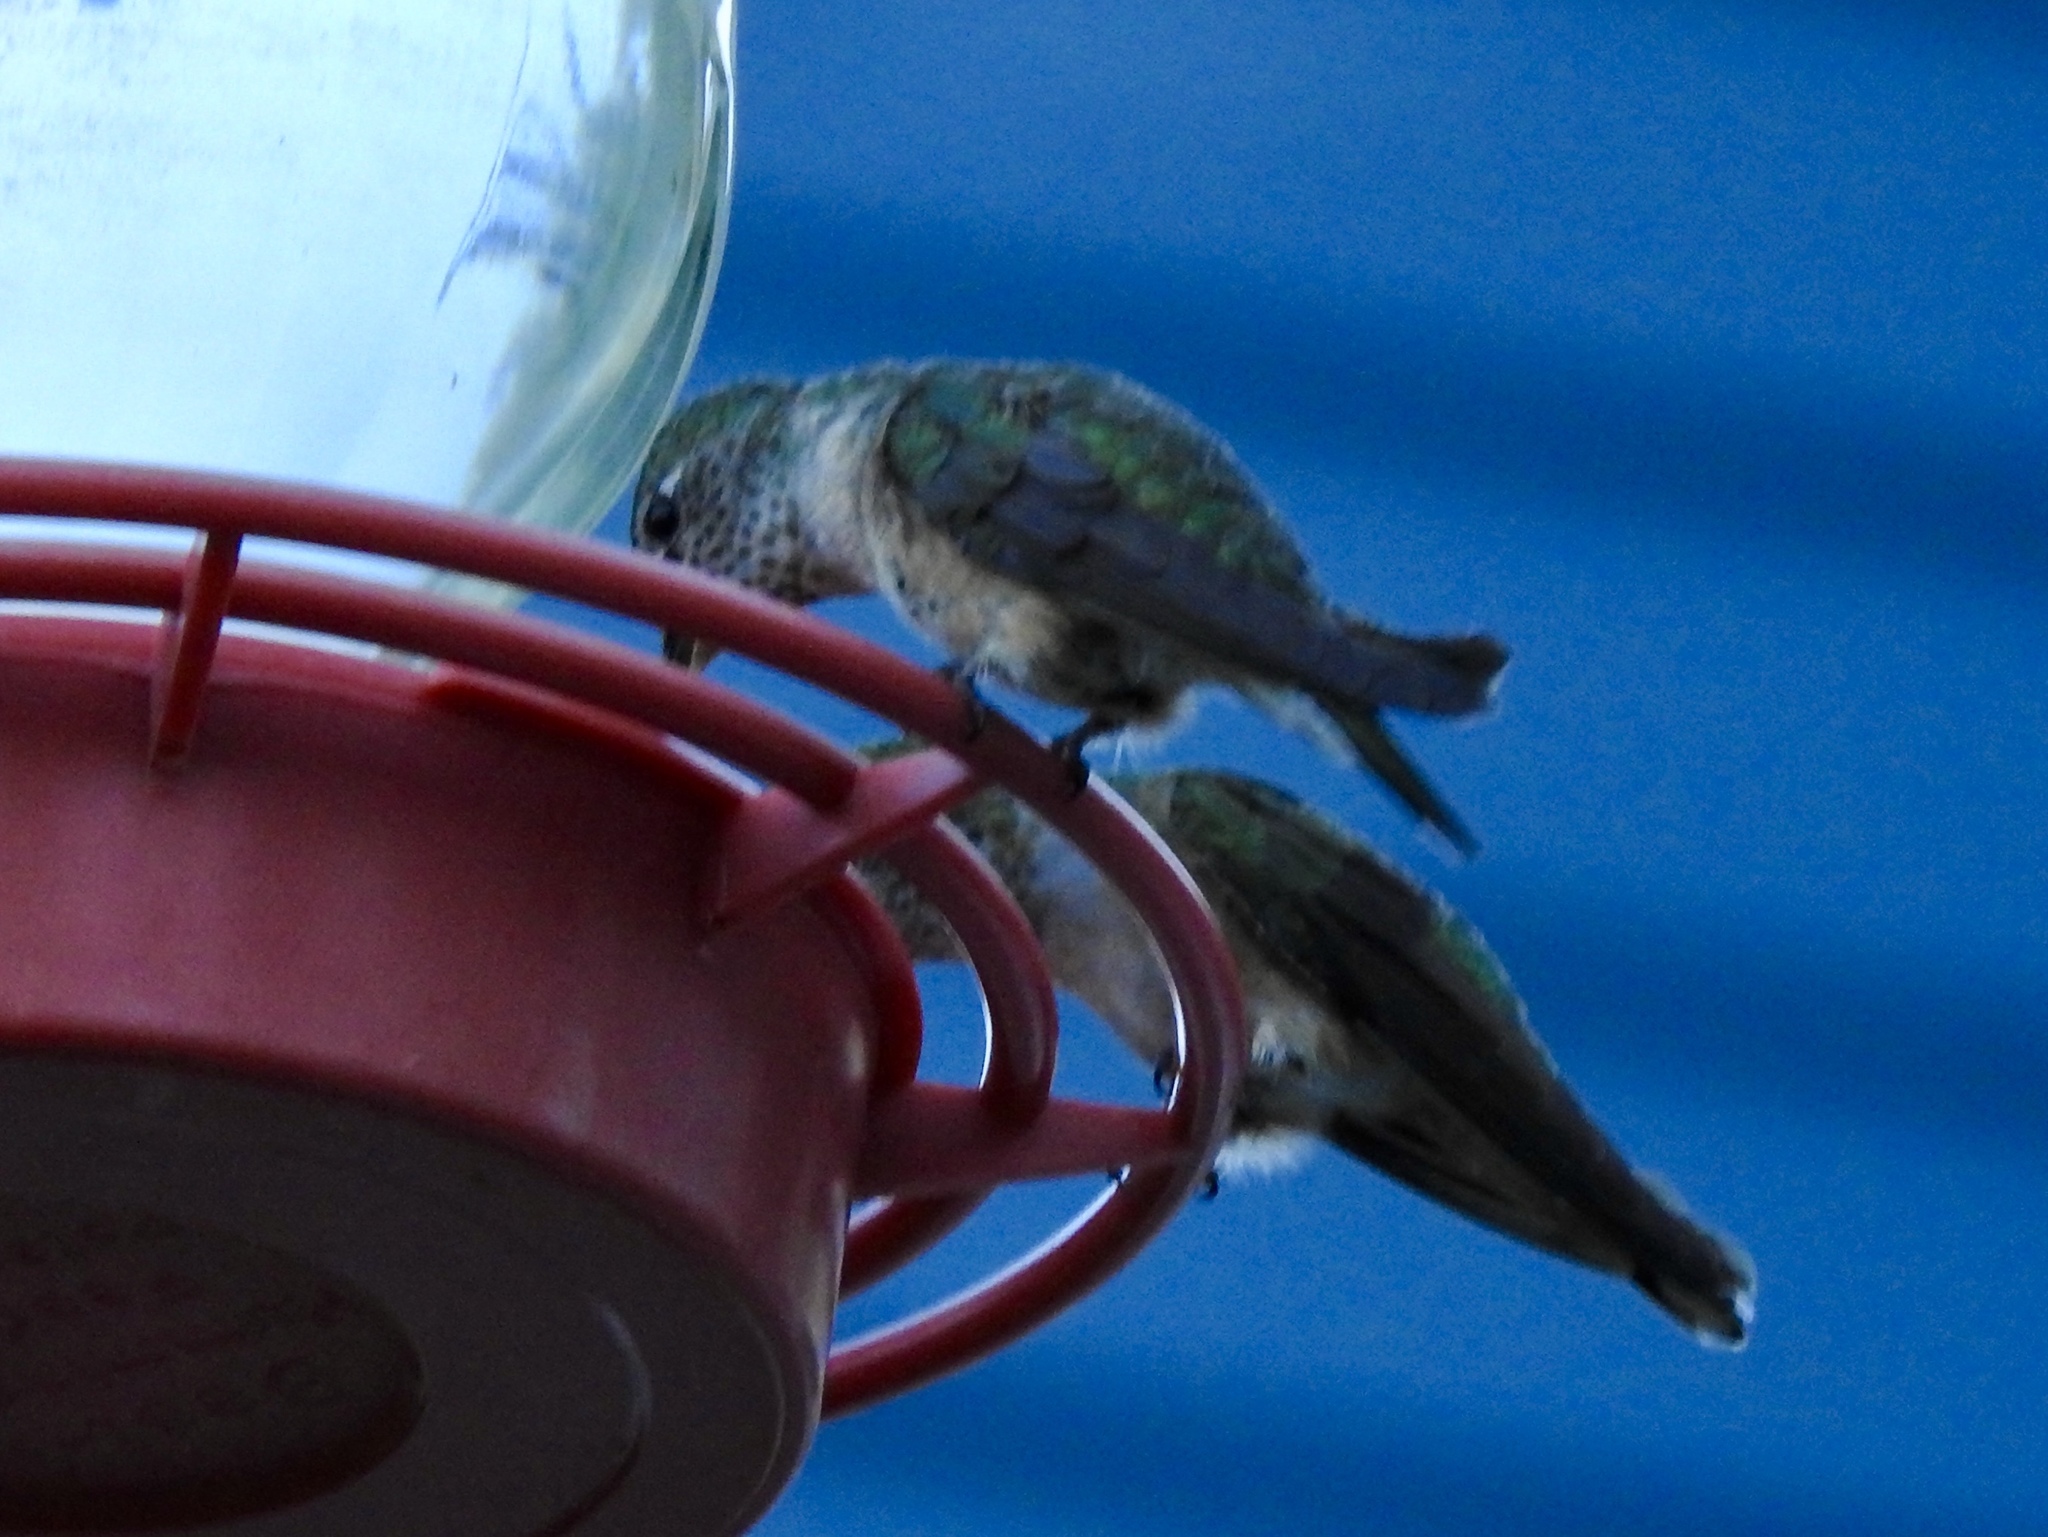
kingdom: Animalia
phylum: Chordata
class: Aves
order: Apodiformes
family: Trochilidae
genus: Selasphorus
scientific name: Selasphorus platycercus
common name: Broad-tailed hummingbird
